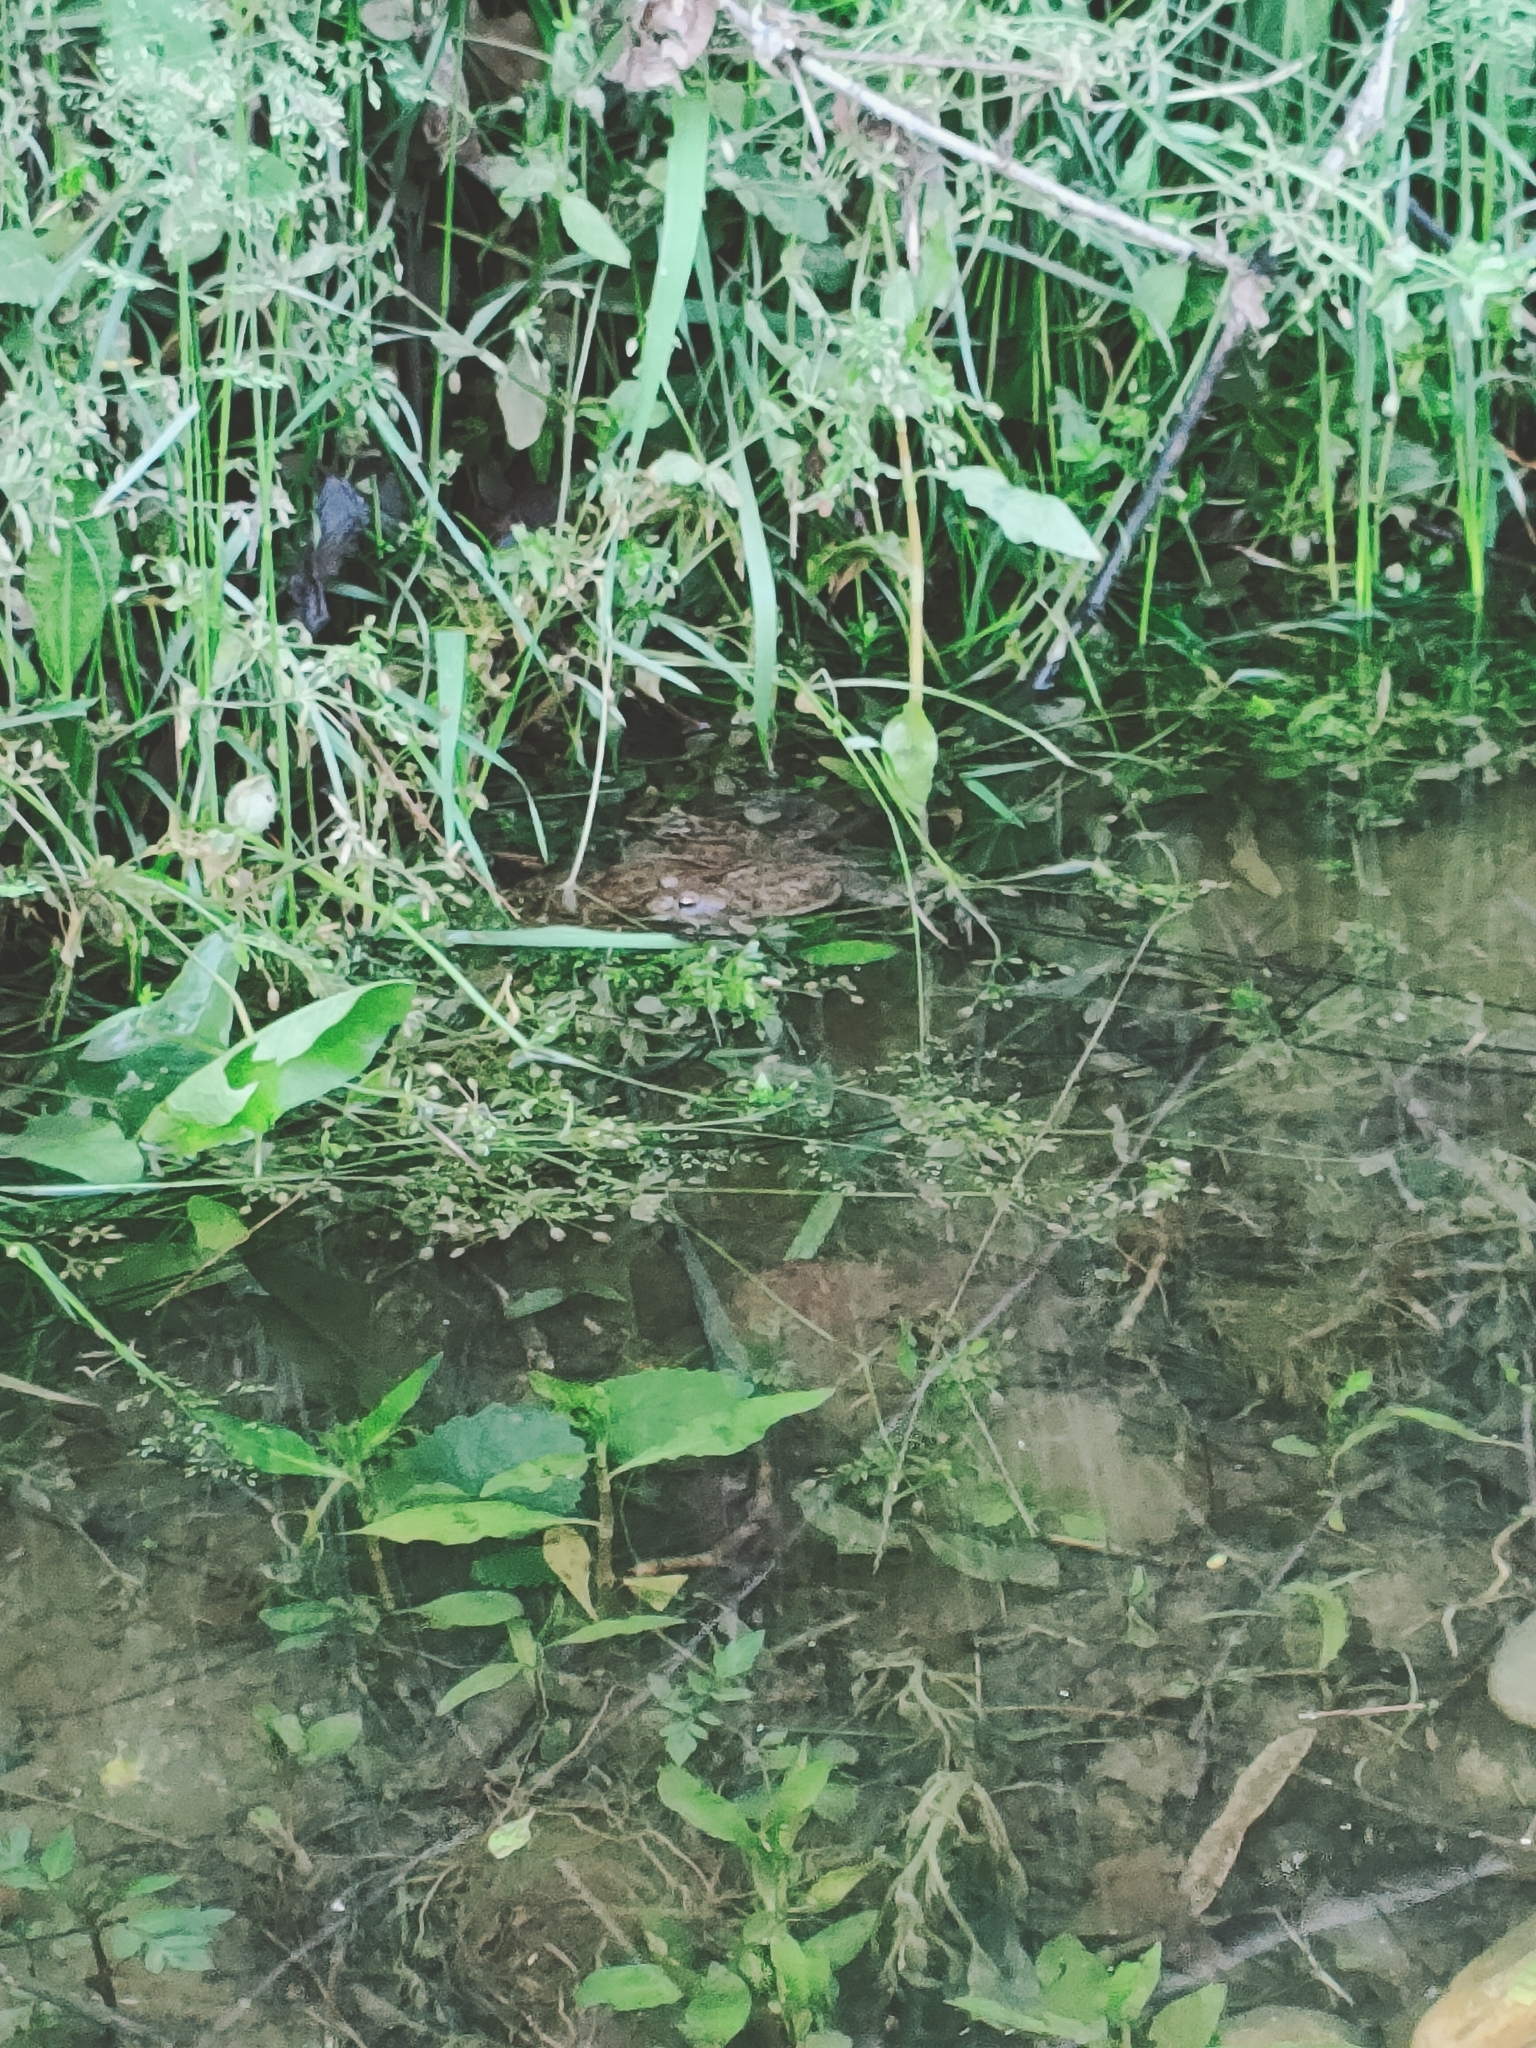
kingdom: Animalia
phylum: Chordata
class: Amphibia
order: Anura
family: Bufonidae
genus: Bufo
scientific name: Bufo bufo
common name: Common toad
